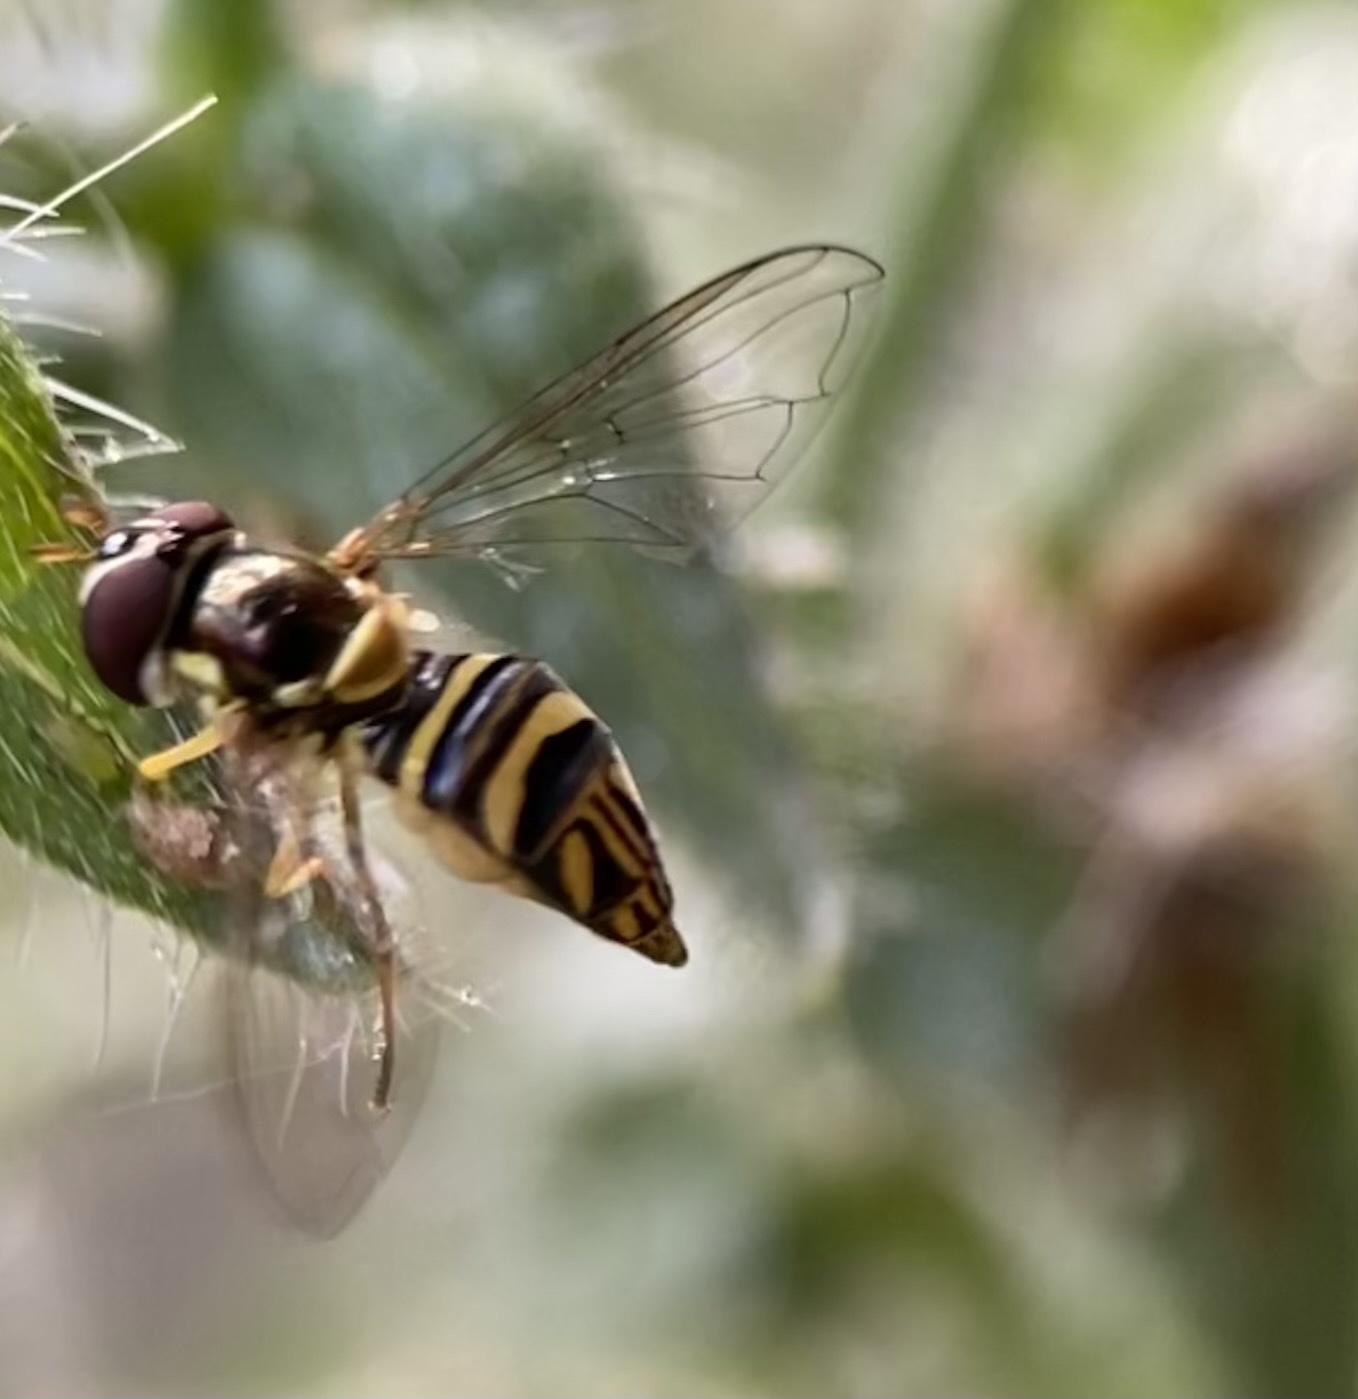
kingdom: Animalia
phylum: Arthropoda
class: Insecta
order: Diptera
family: Syrphidae
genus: Allograpta
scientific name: Allograpta obliqua
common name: Common oblique syrphid
